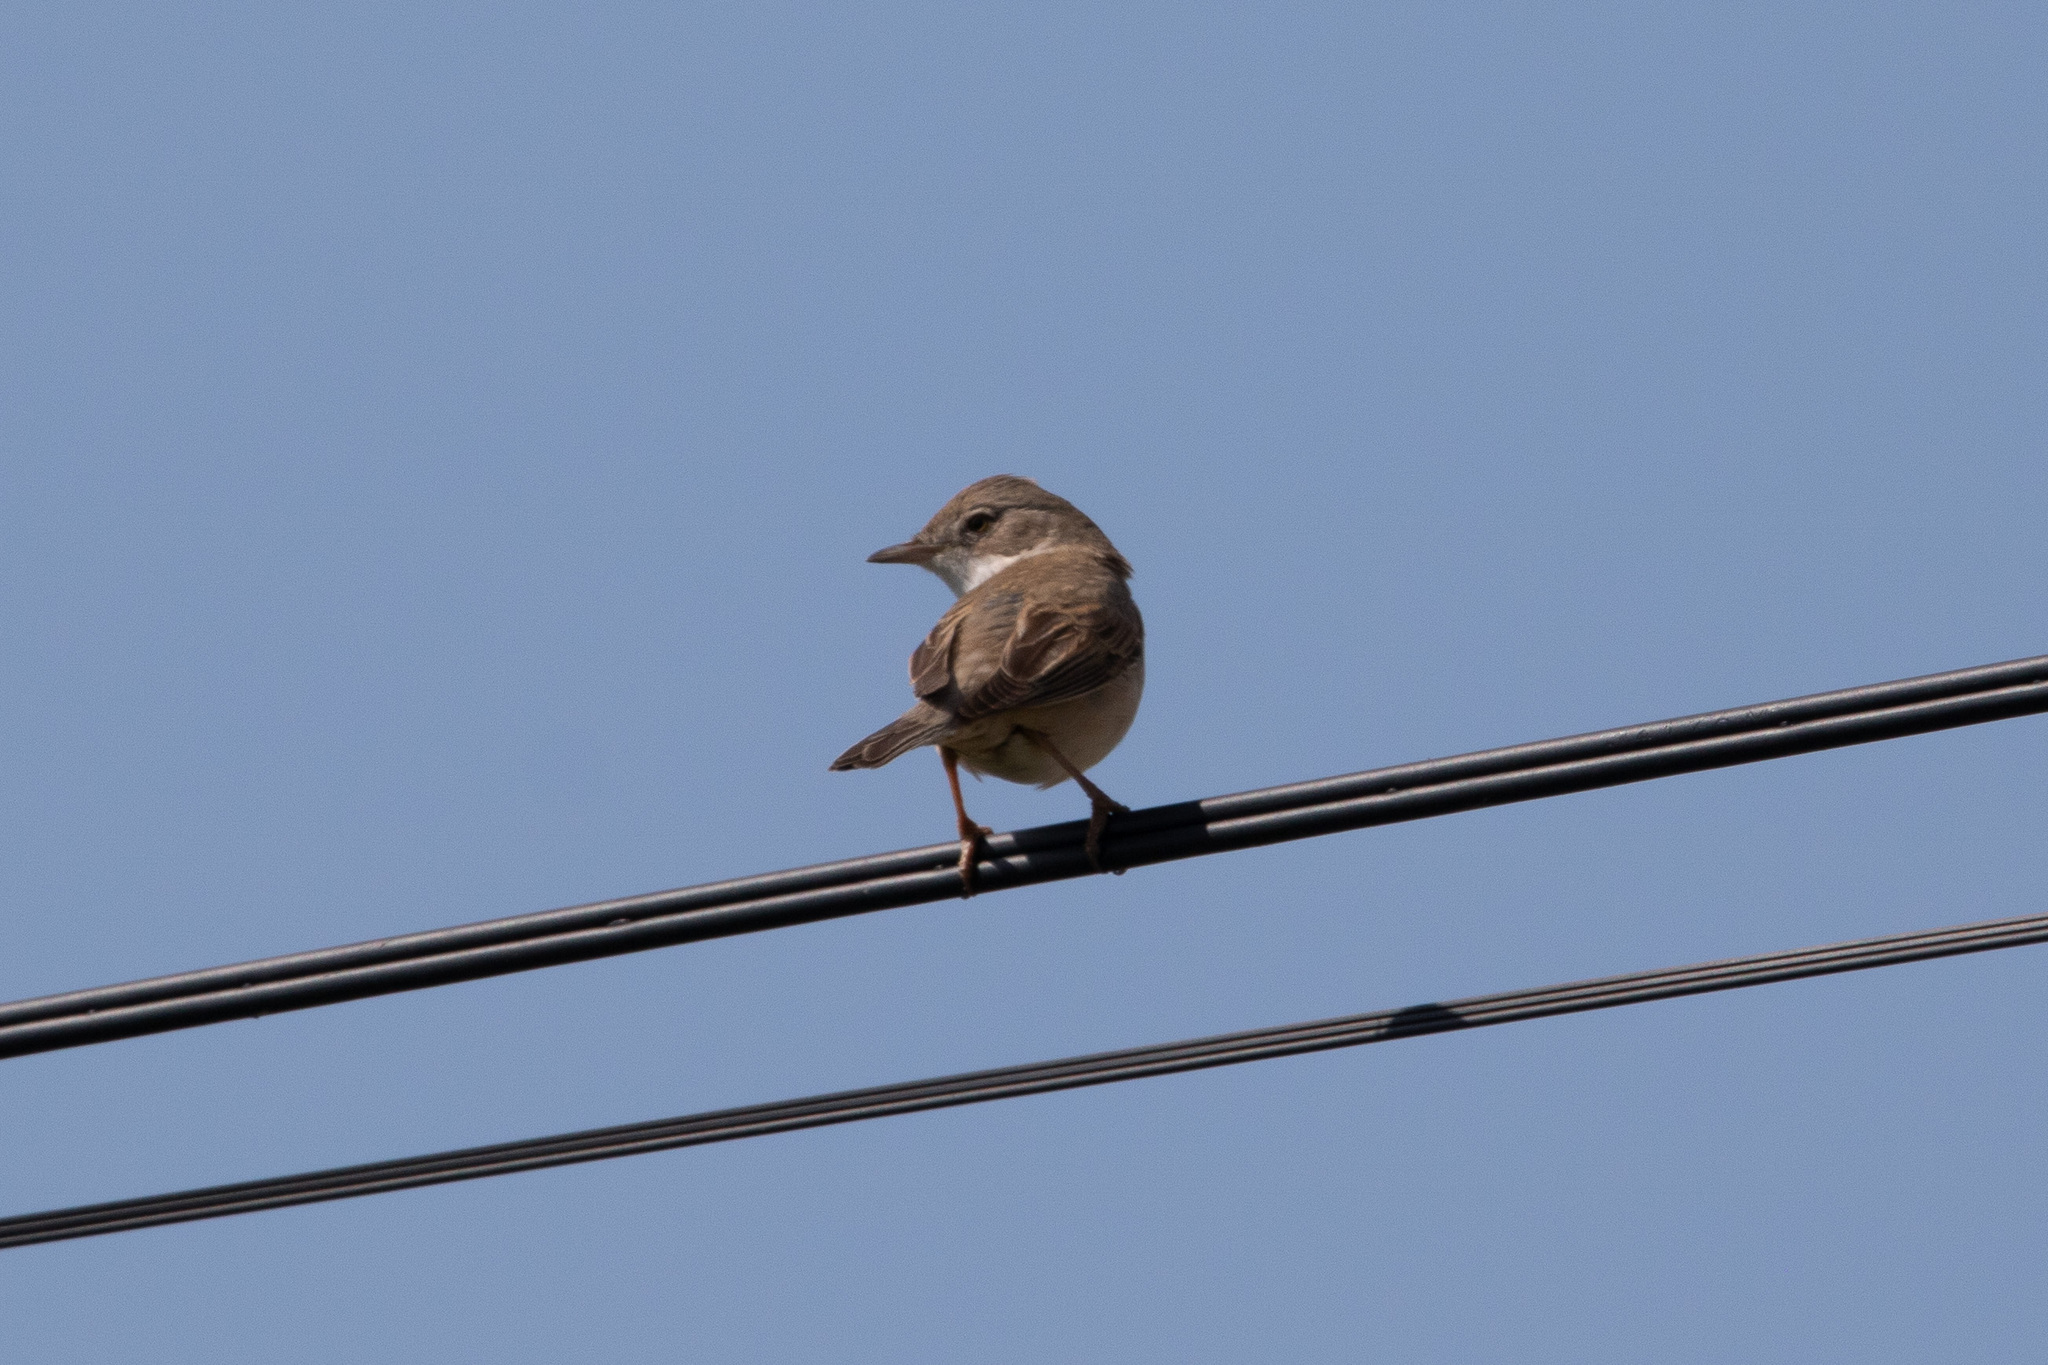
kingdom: Animalia
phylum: Chordata
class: Aves
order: Passeriformes
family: Sylviidae
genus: Sylvia
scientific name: Sylvia communis
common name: Common whitethroat
